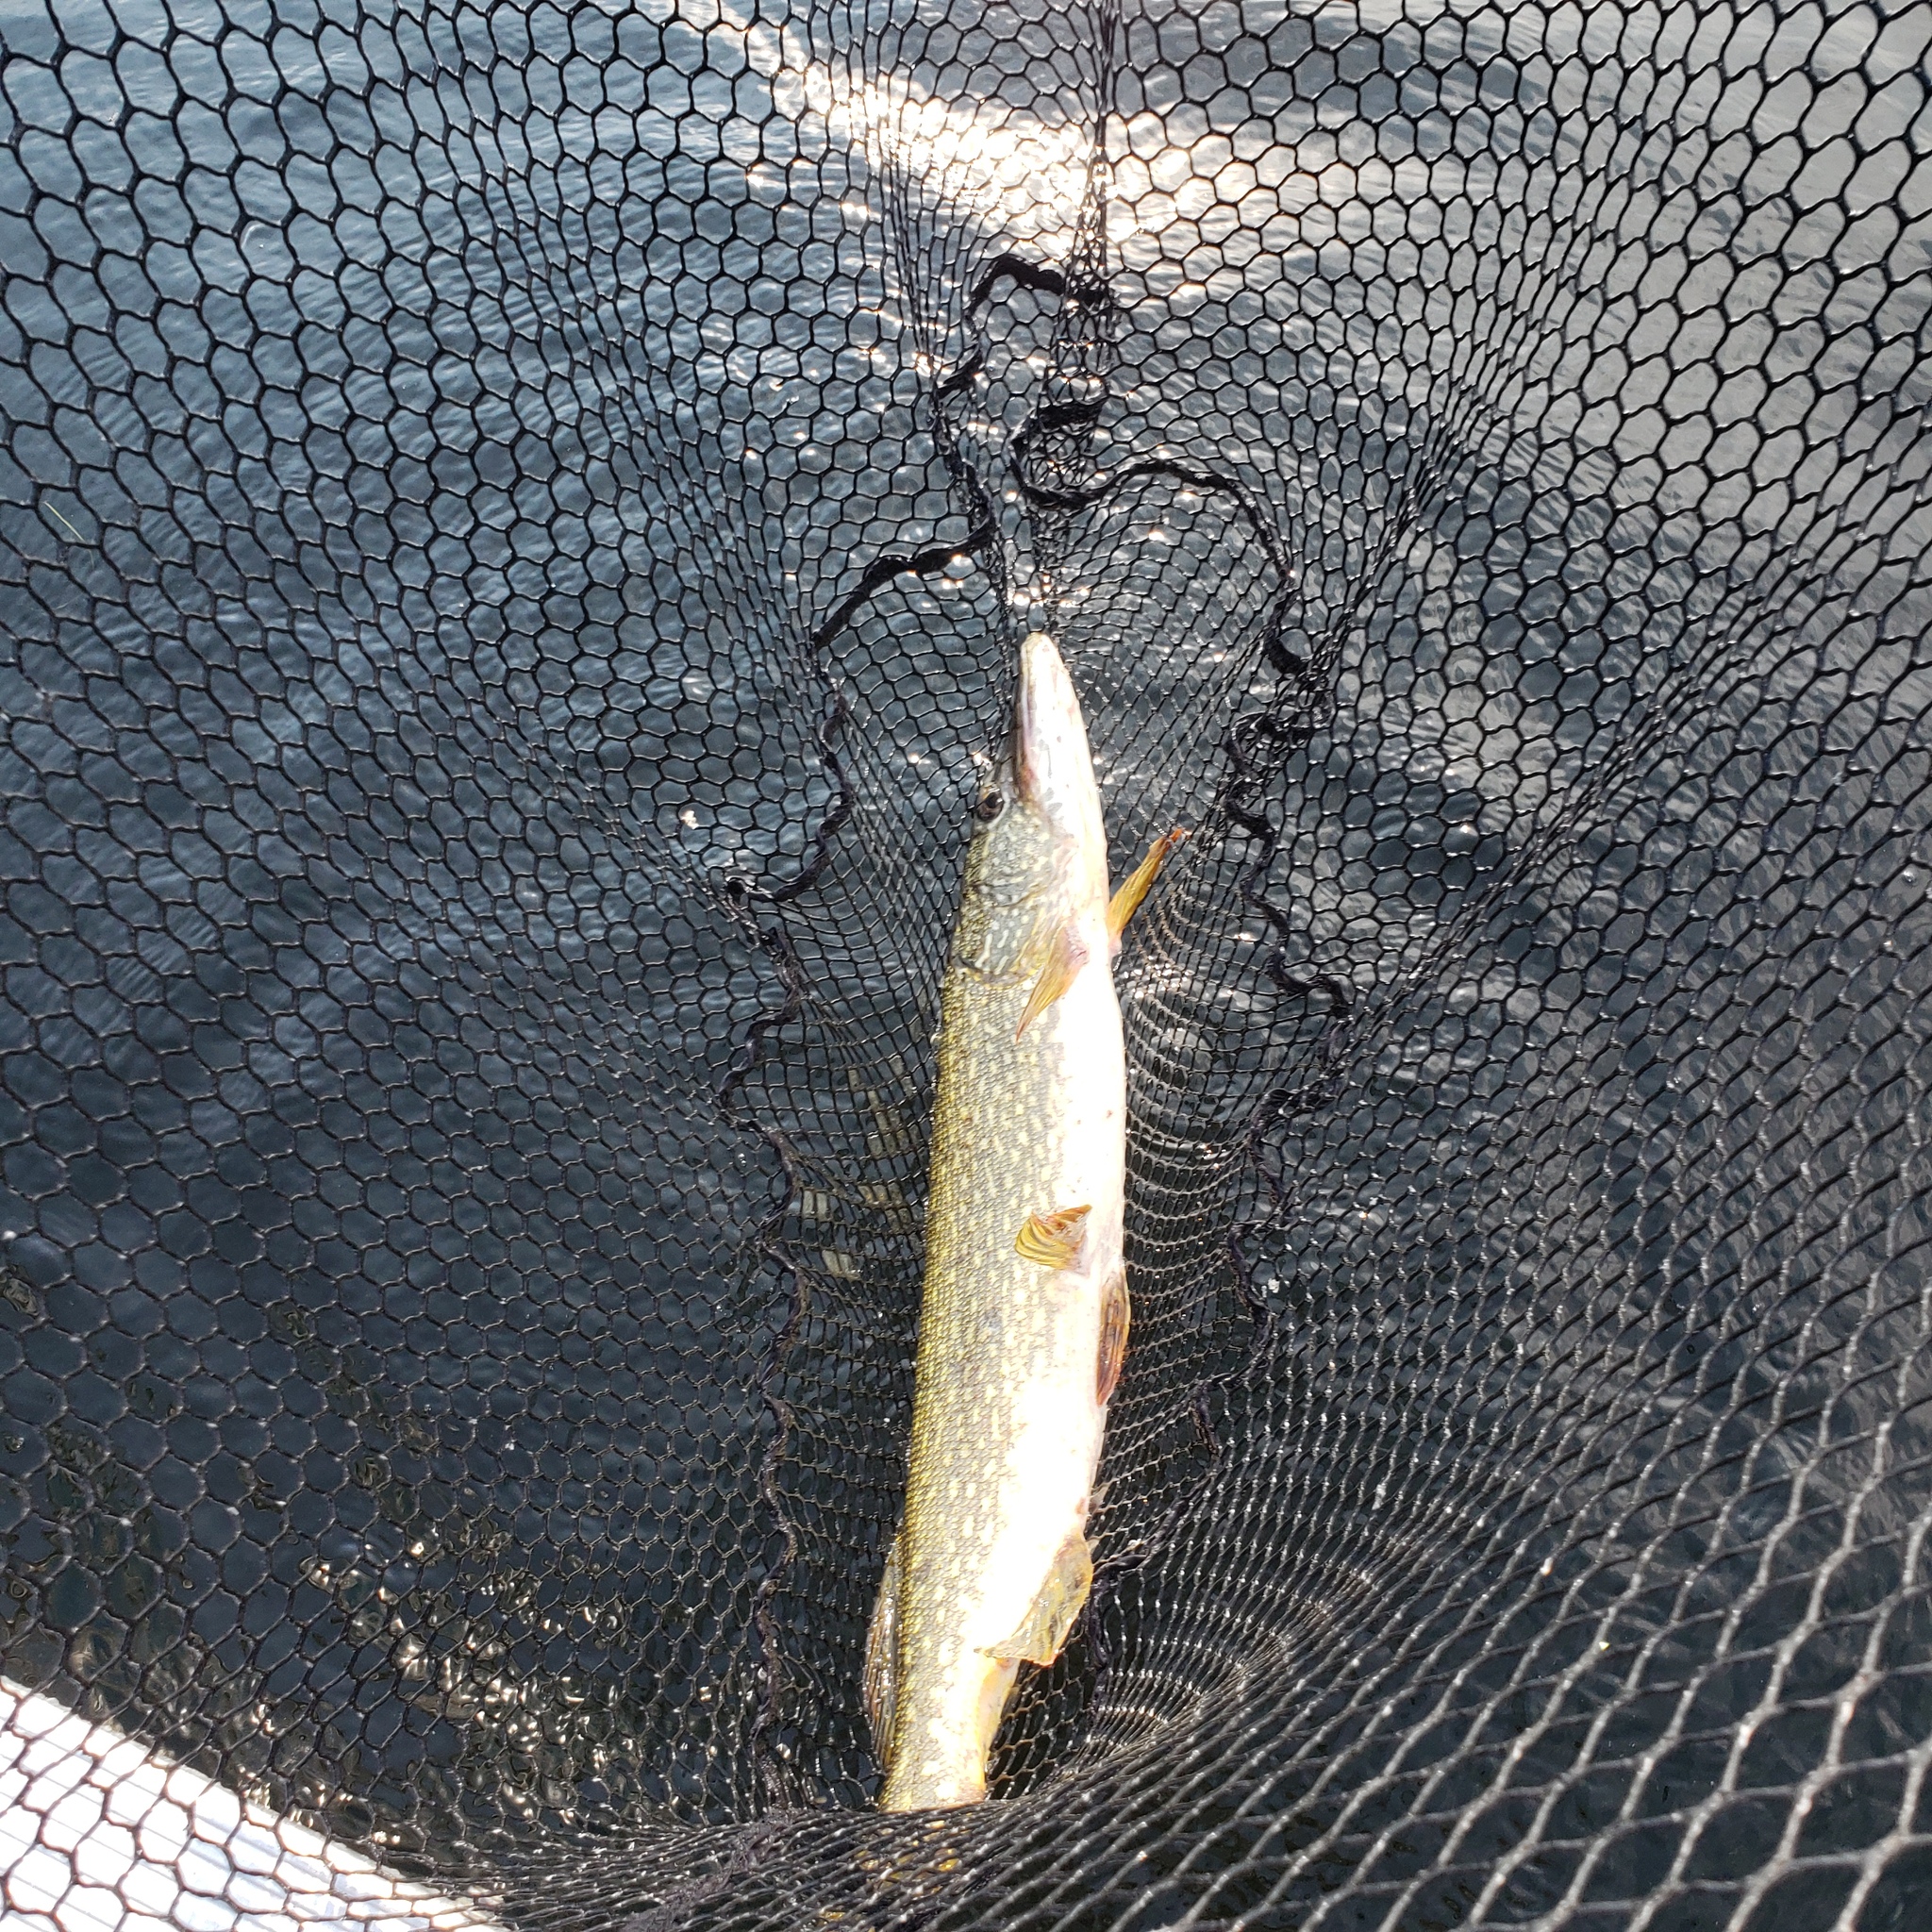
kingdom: Animalia
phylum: Chordata
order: Esociformes
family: Esocidae
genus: Esox
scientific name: Esox lucius
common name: Northern pike
